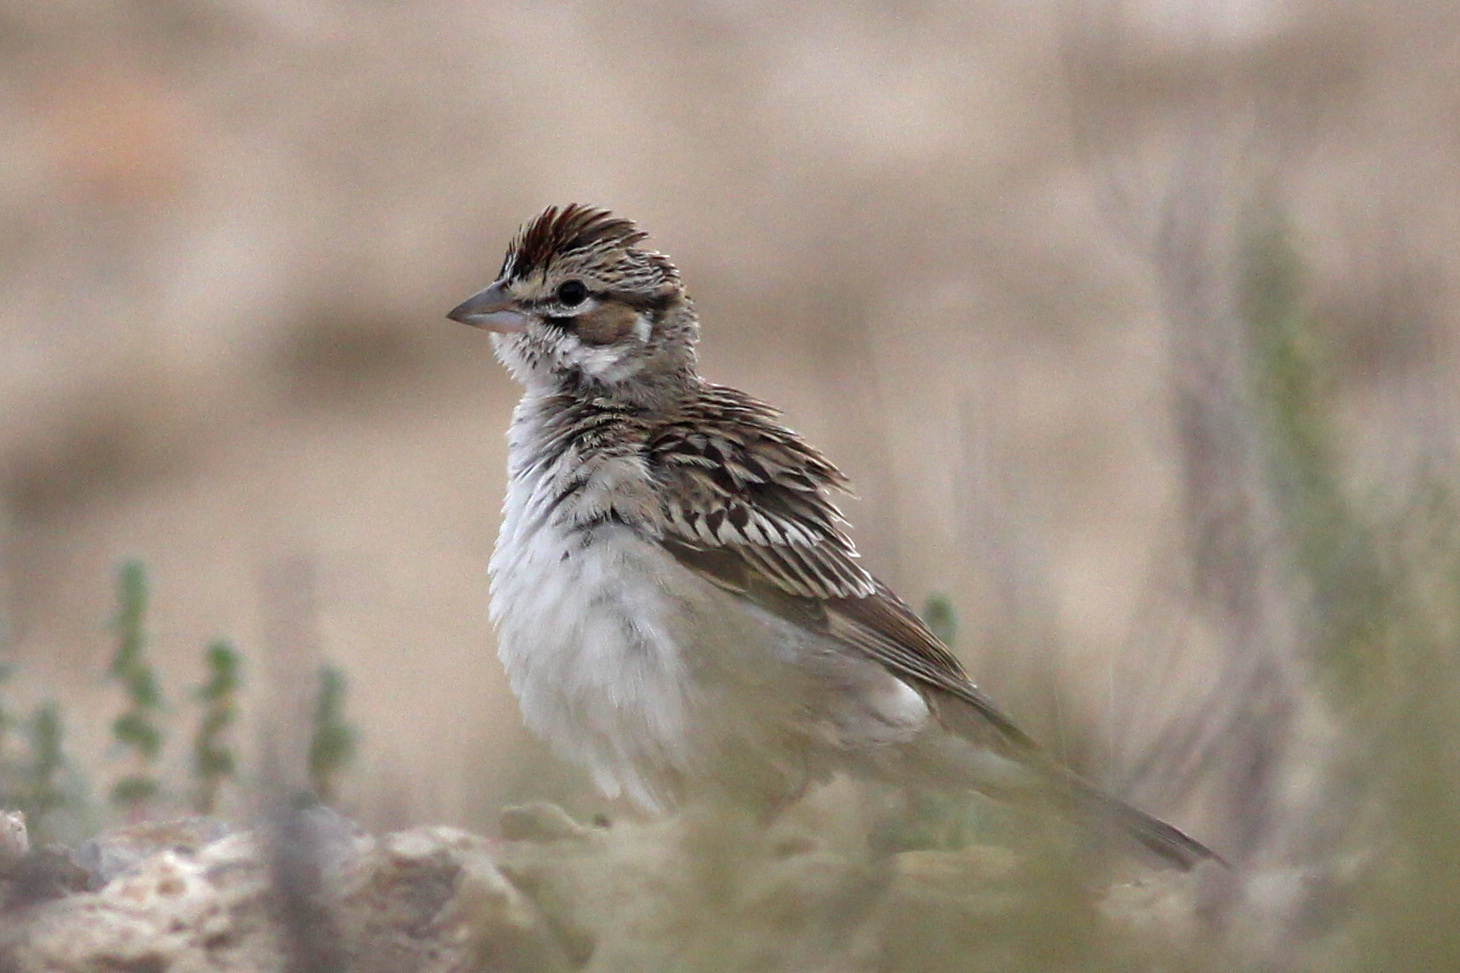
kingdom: Animalia
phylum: Chordata
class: Aves
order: Passeriformes
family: Passerellidae
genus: Chondestes
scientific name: Chondestes grammacus
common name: Lark sparrow
